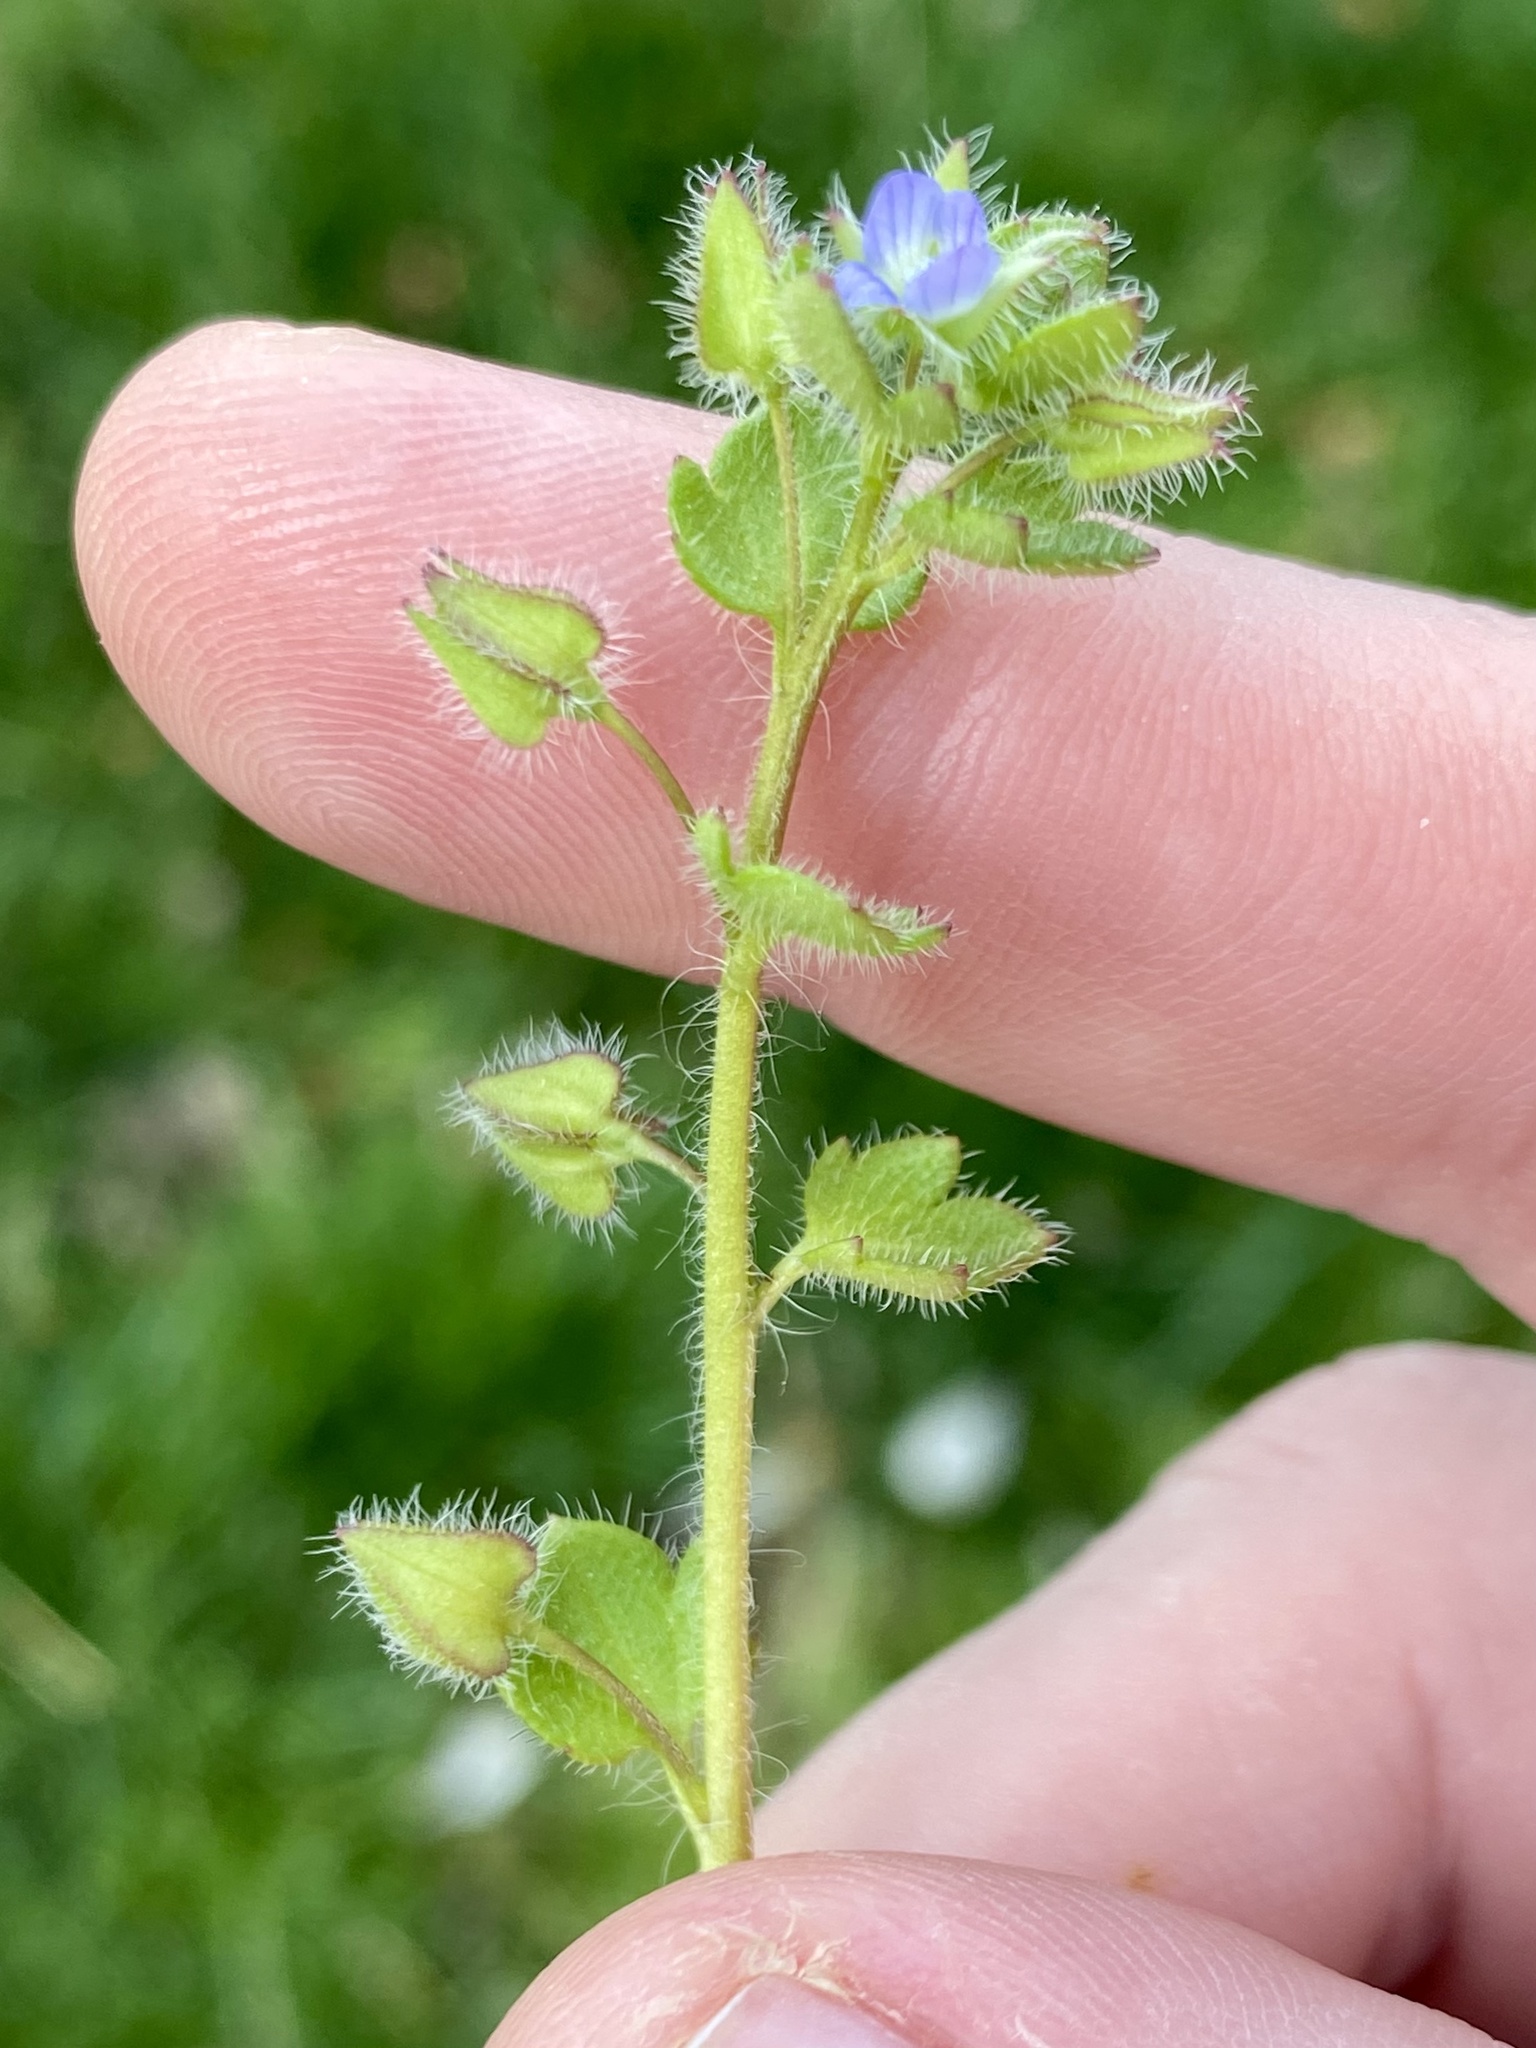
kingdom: Plantae
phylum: Tracheophyta
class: Magnoliopsida
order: Lamiales
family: Plantaginaceae
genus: Veronica
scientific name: Veronica hederifolia
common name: Ivy-leaved speedwell
